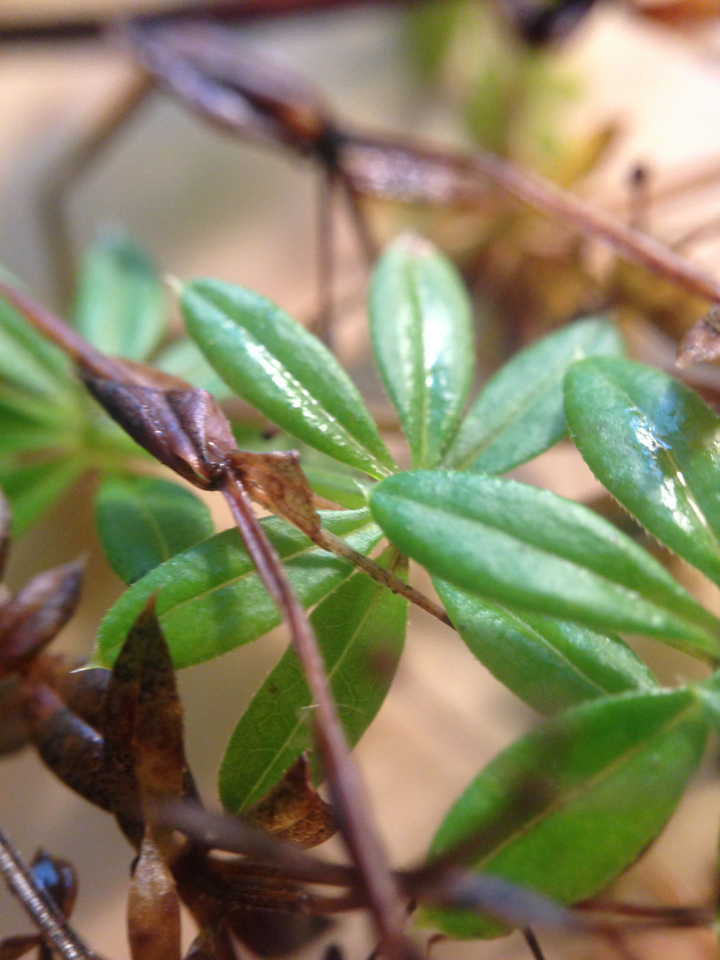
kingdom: Plantae
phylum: Tracheophyta
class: Magnoliopsida
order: Gentianales
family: Rubiaceae
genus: Galium
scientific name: Galium asprellum
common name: Rough bedstraw
